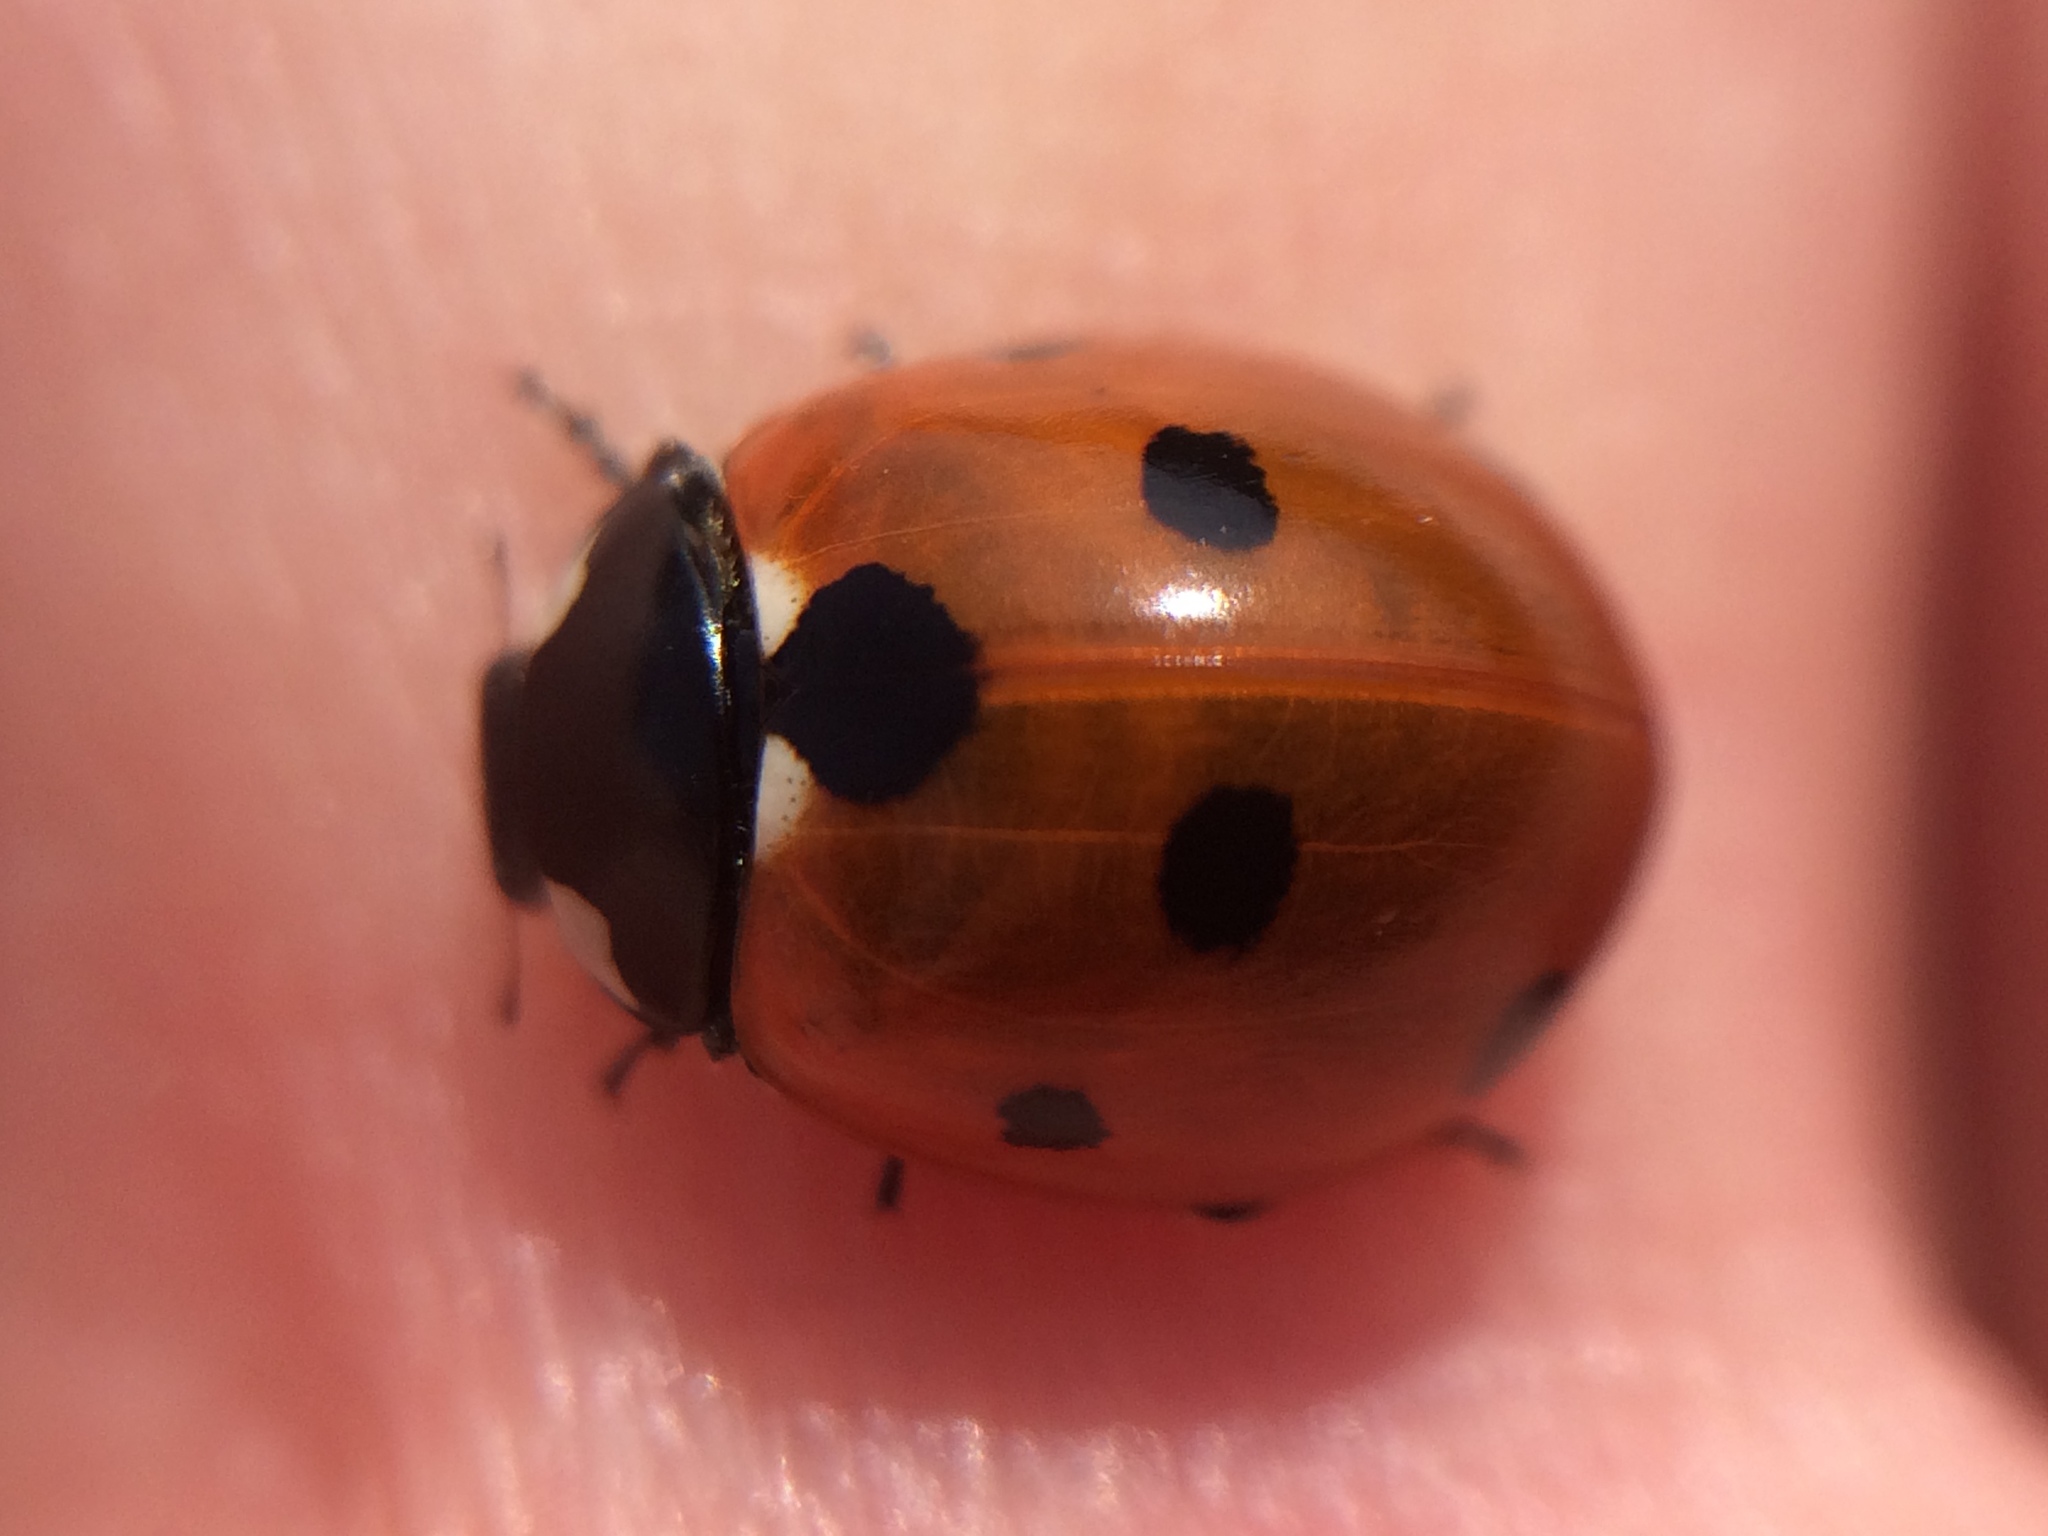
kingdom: Animalia
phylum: Arthropoda
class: Insecta
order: Coleoptera
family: Coccinellidae
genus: Coccinella
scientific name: Coccinella septempunctata
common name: Sevenspotted lady beetle
